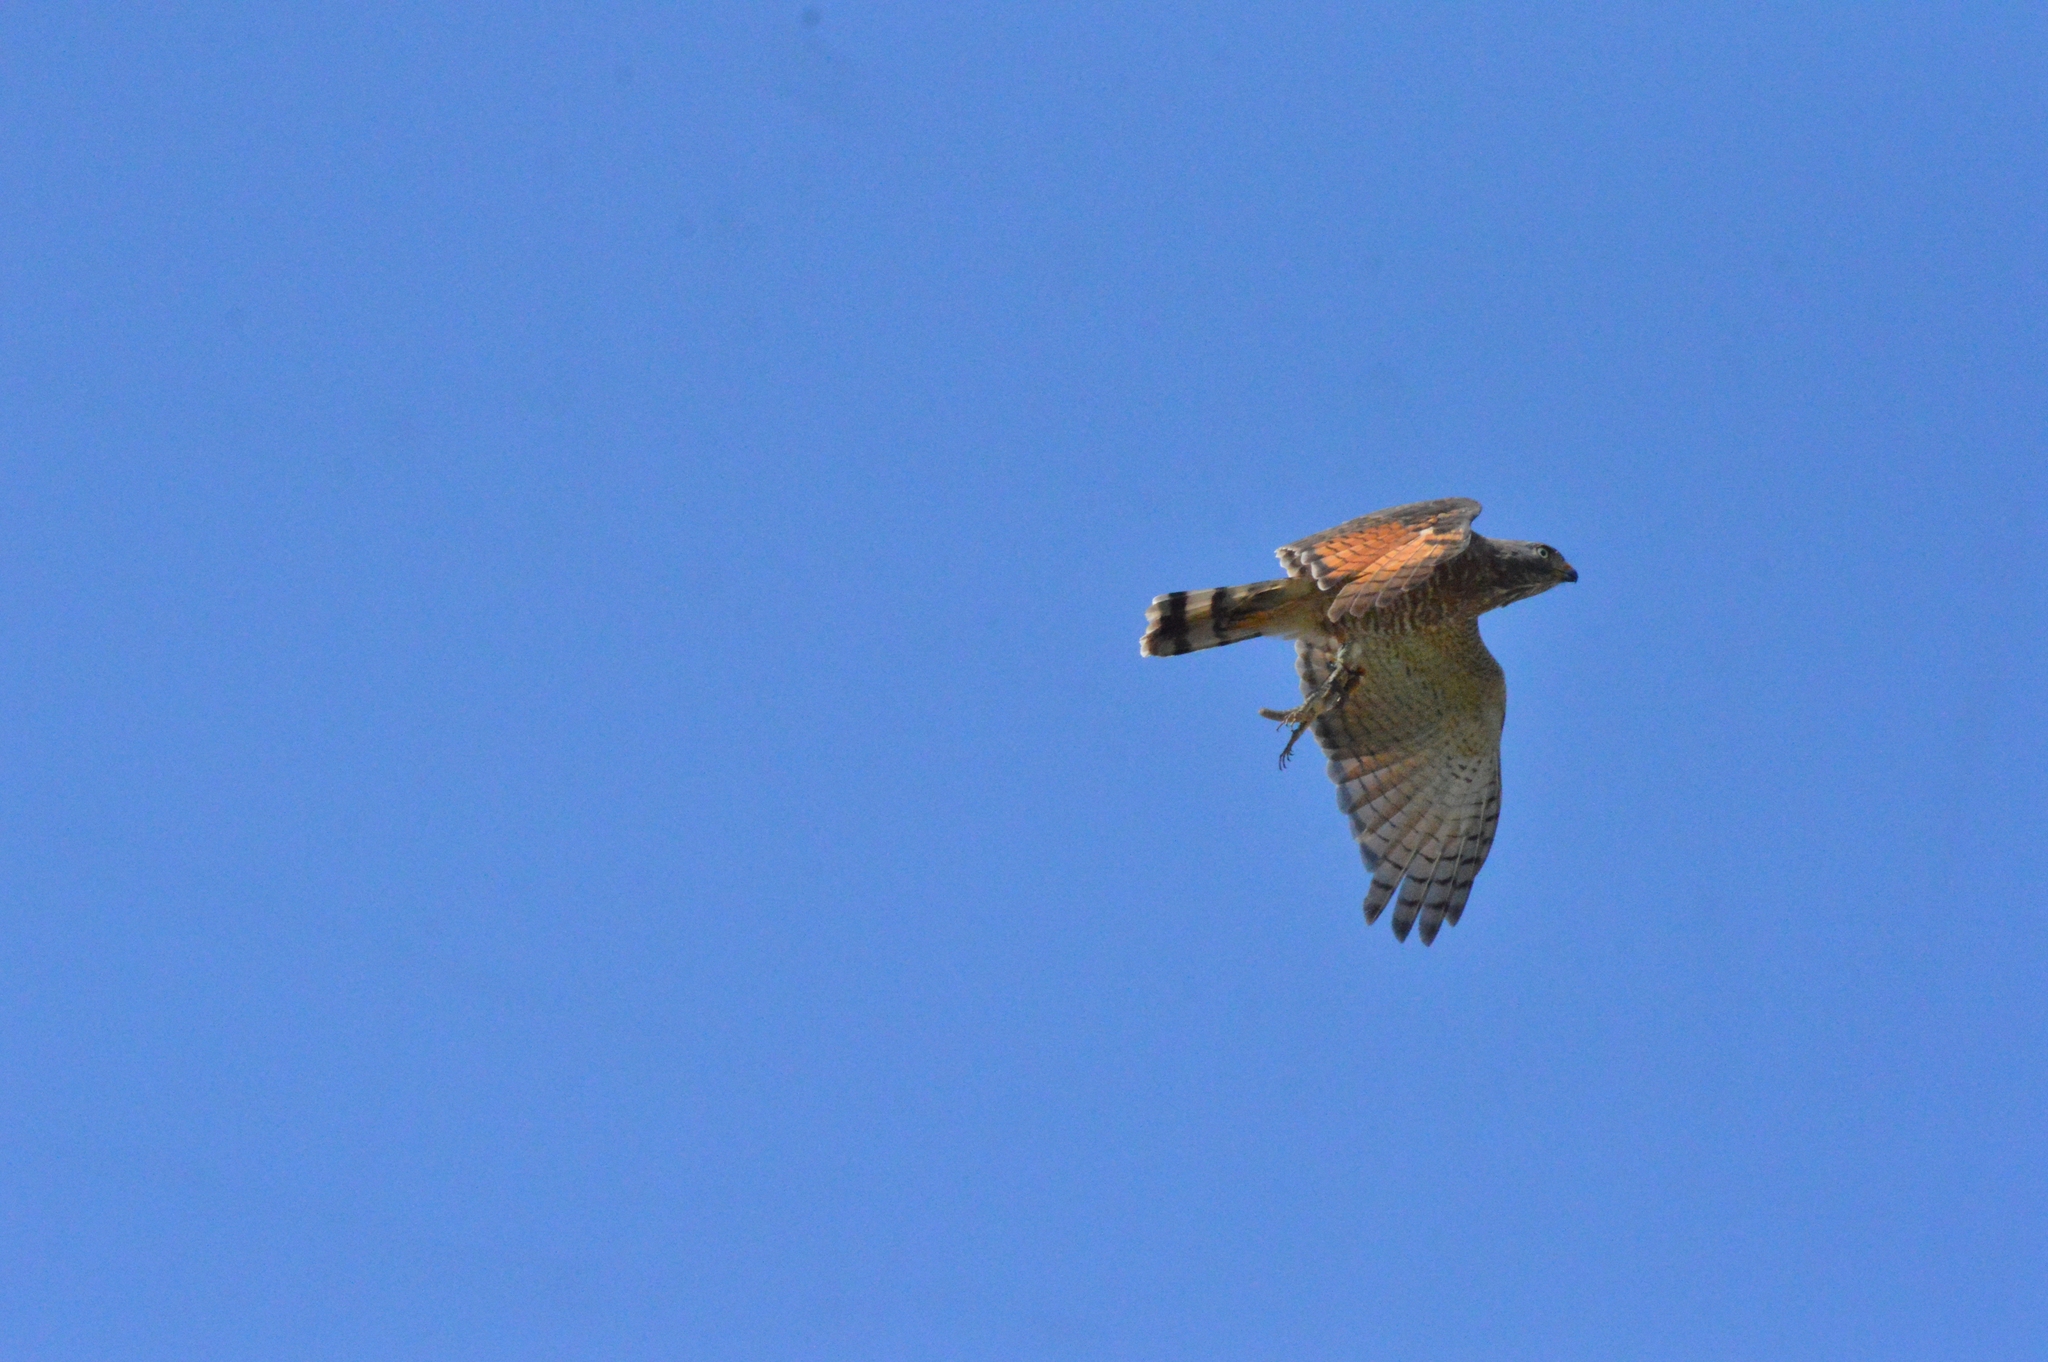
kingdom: Animalia
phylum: Chordata
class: Aves
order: Accipitriformes
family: Accipitridae
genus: Rupornis
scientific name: Rupornis magnirostris
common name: Roadside hawk
